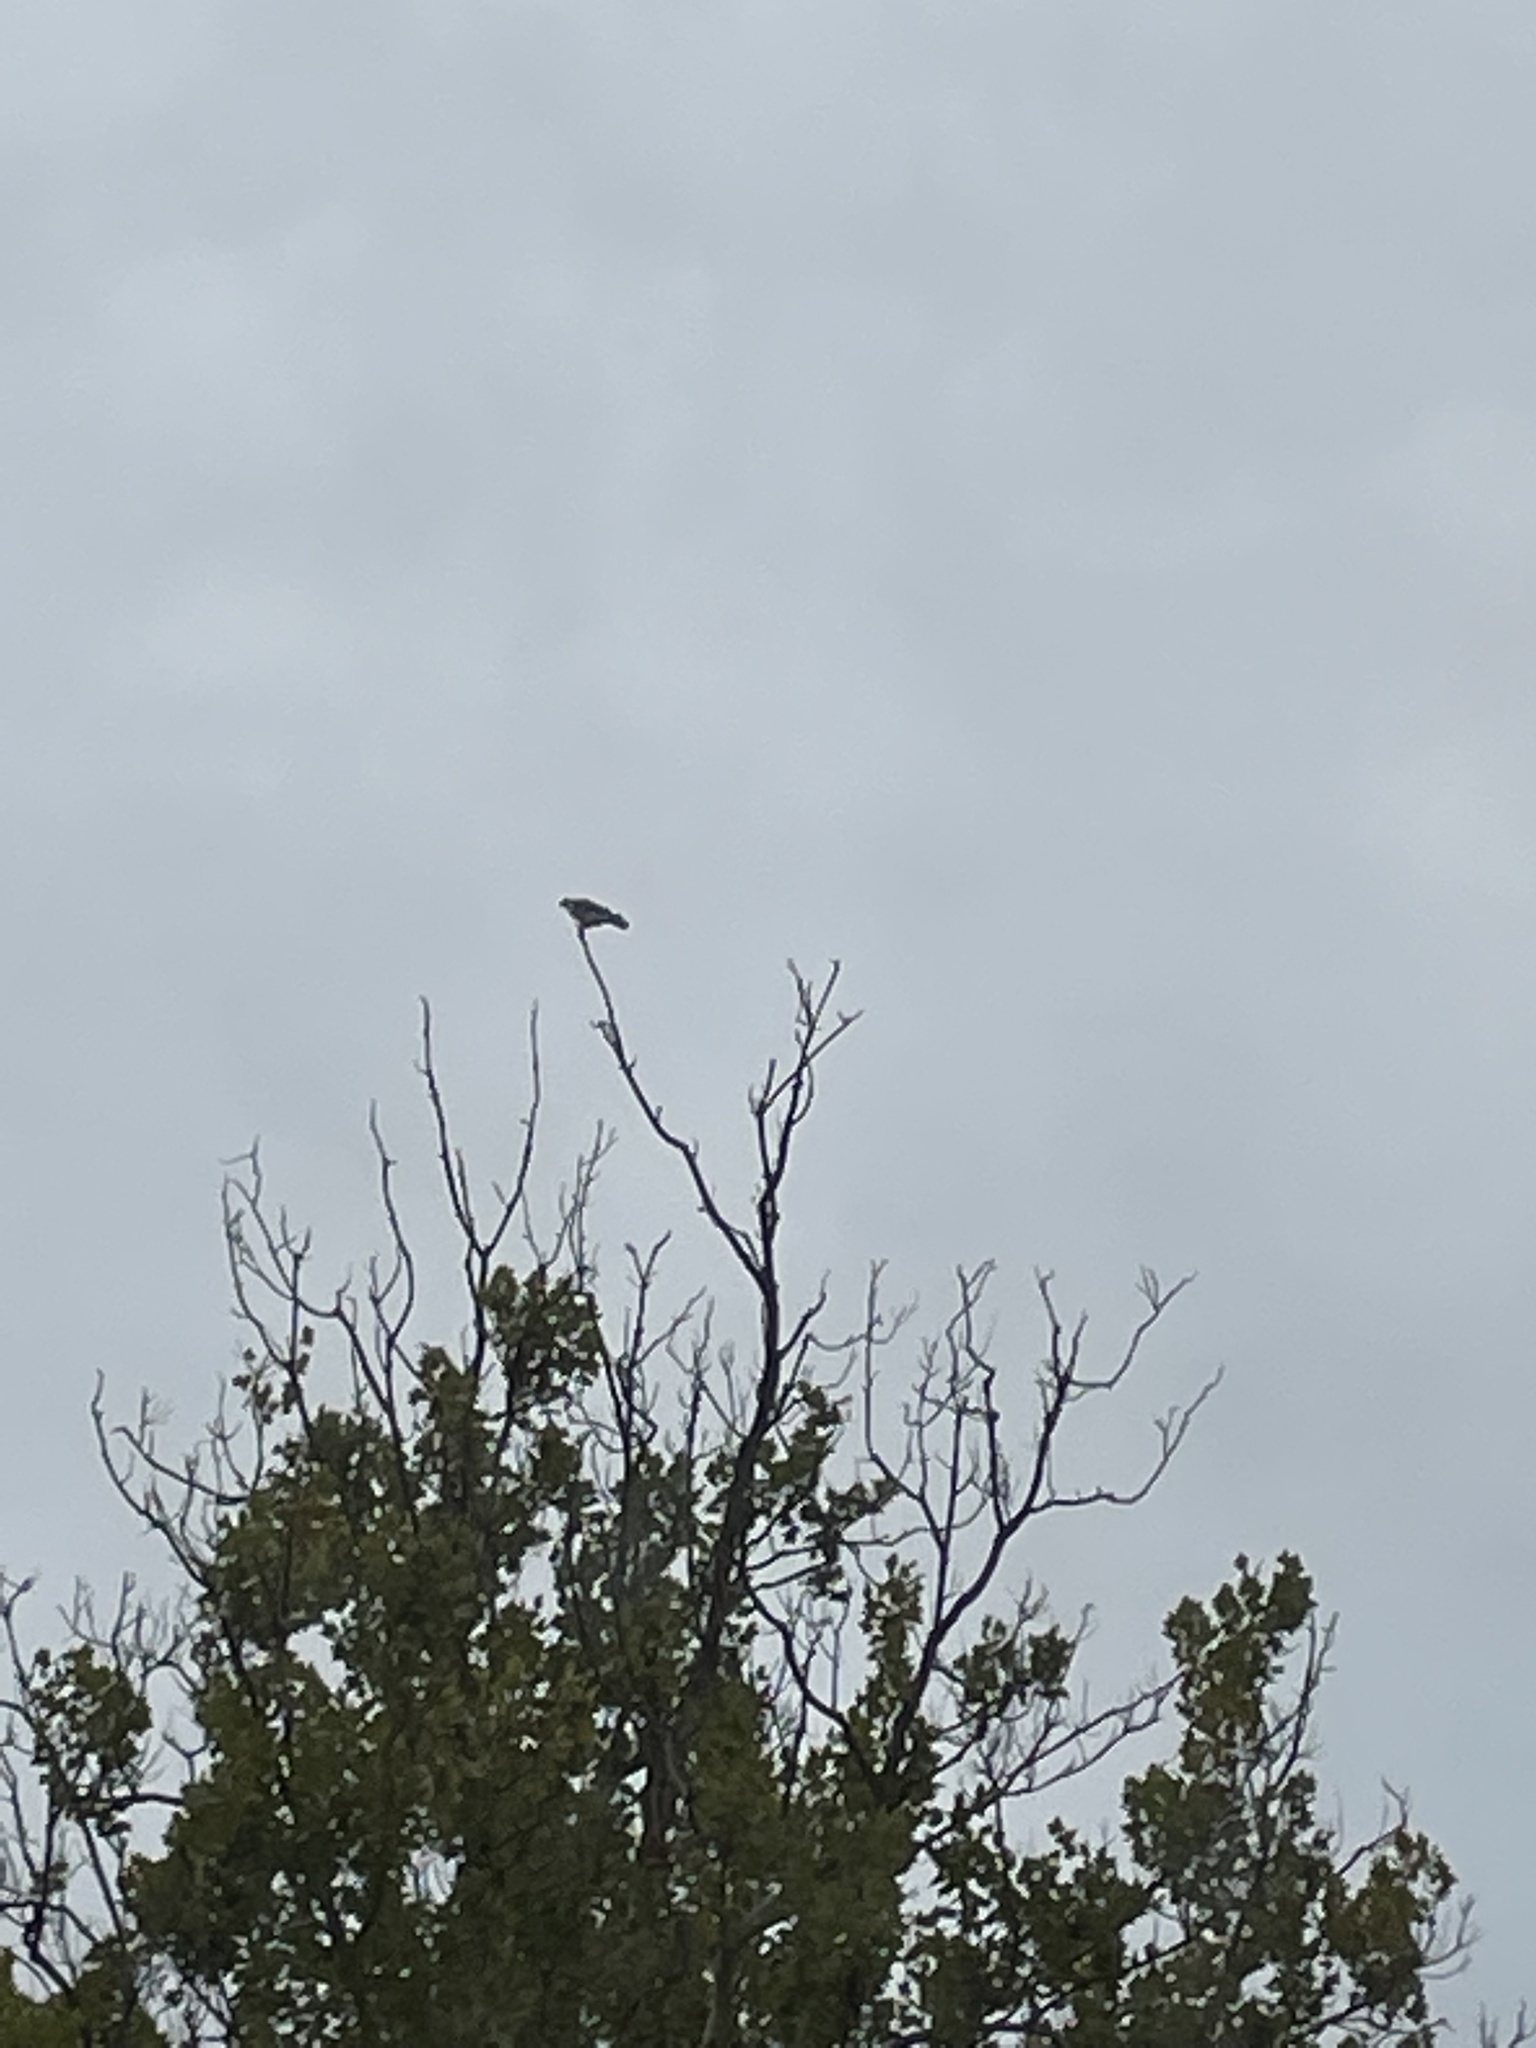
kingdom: Animalia
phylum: Chordata
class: Aves
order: Accipitriformes
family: Pandionidae
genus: Pandion
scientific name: Pandion haliaetus
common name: Osprey
